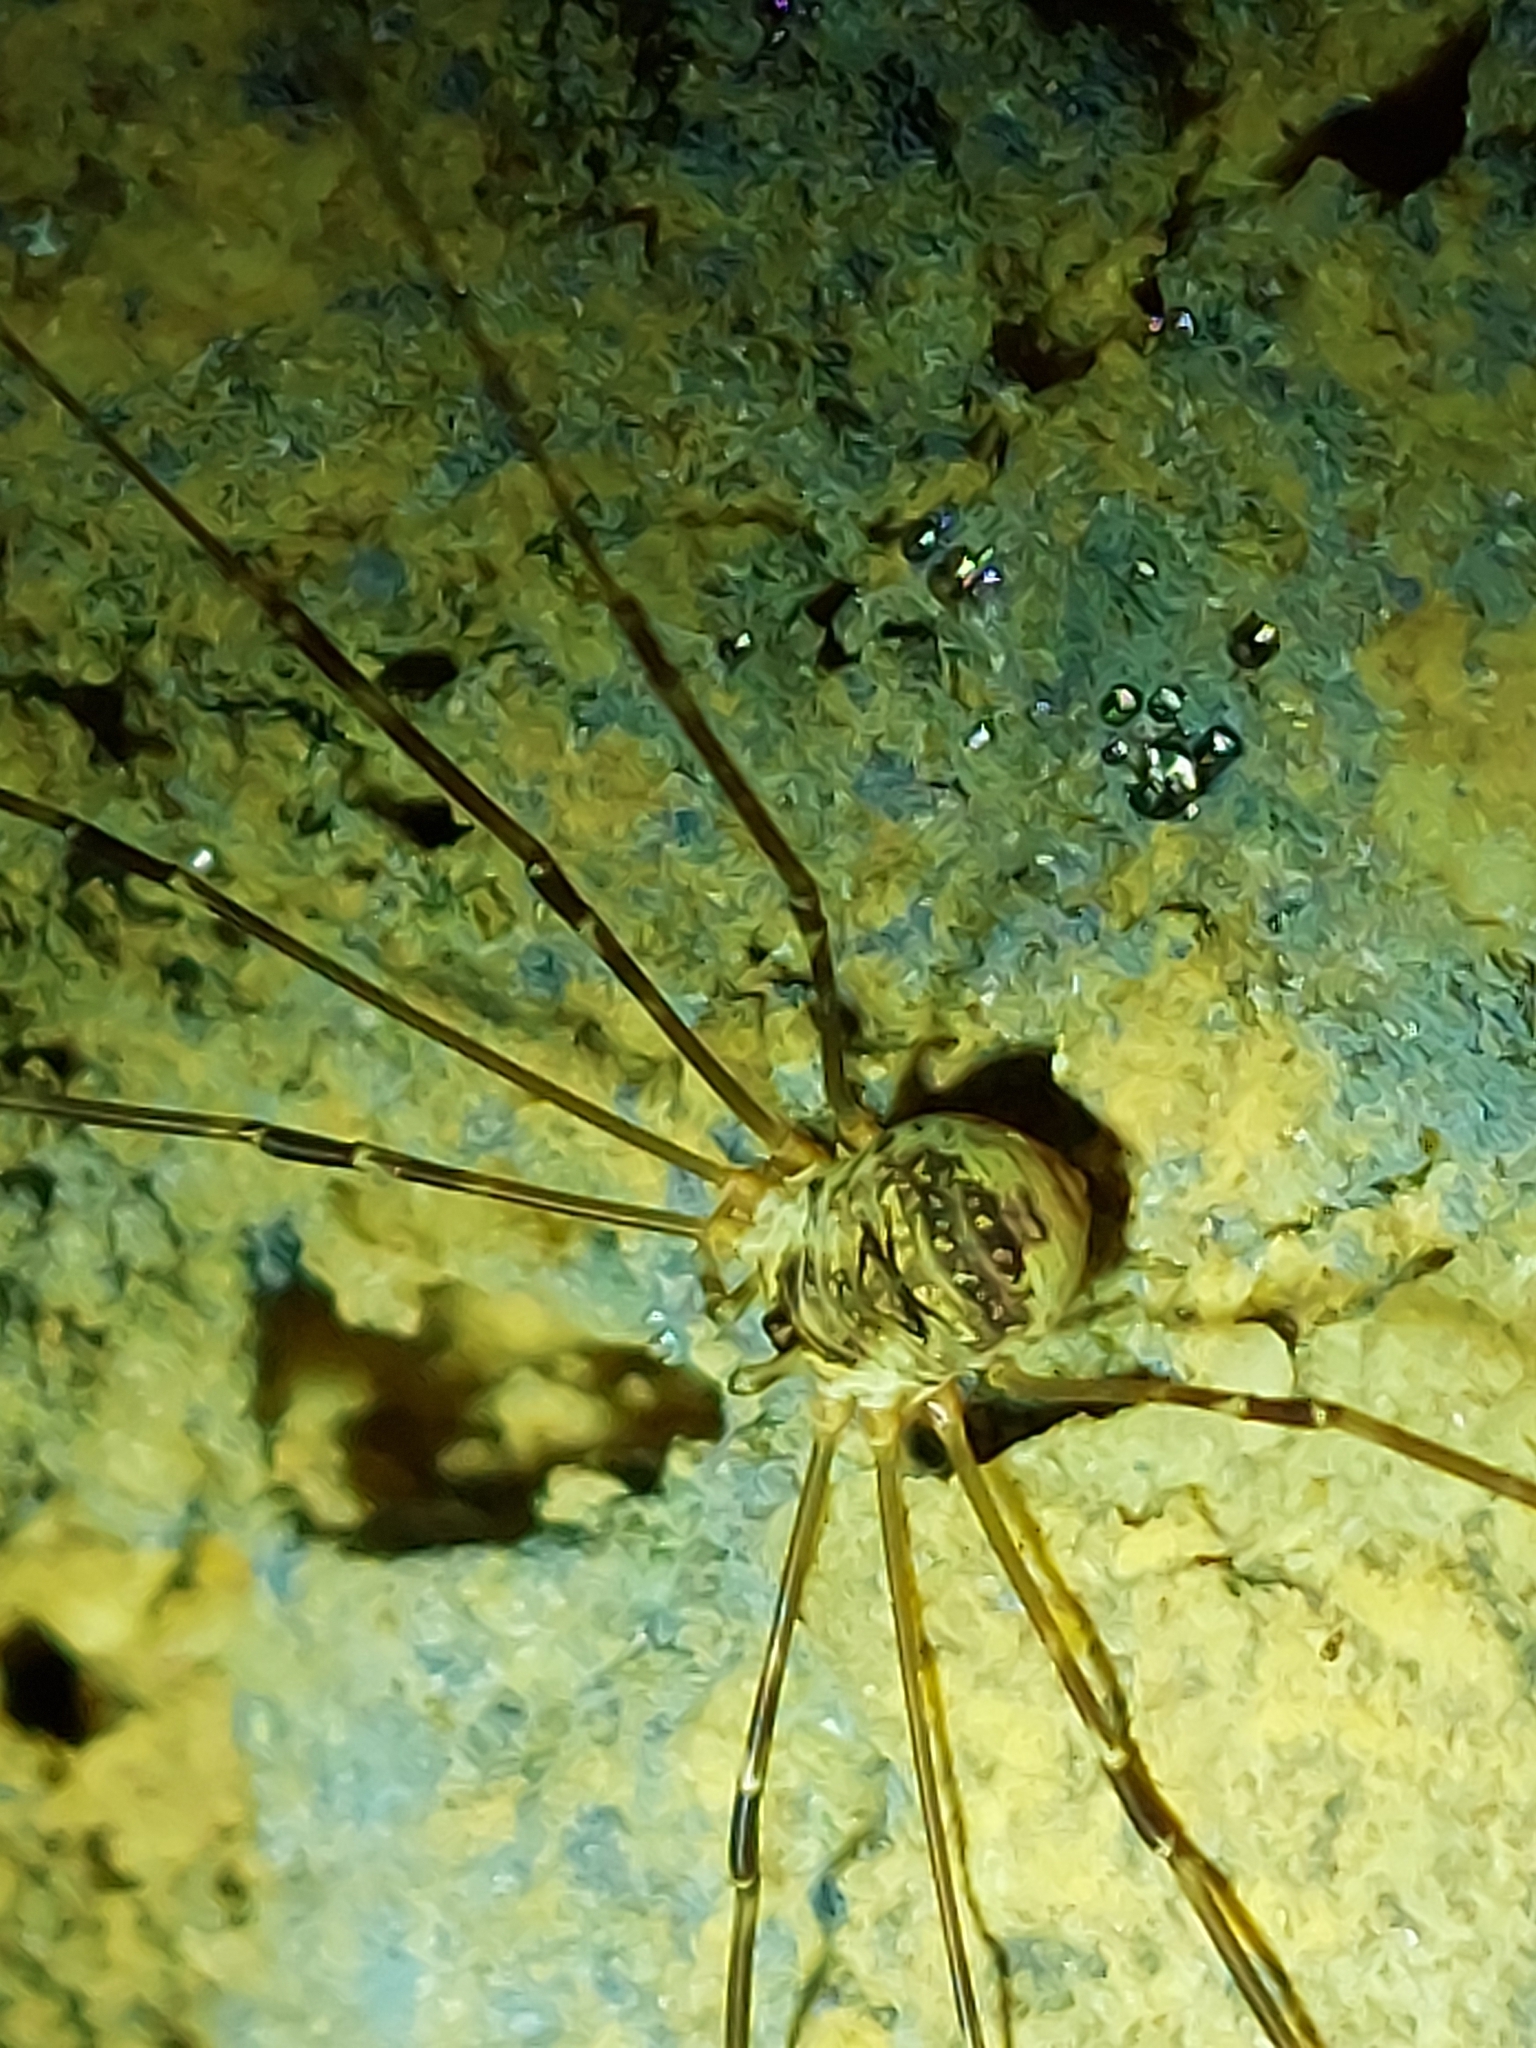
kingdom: Animalia
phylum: Arthropoda
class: Arachnida
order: Opiliones
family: Phalangiidae
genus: Amilenus
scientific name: Amilenus aurantiacus
